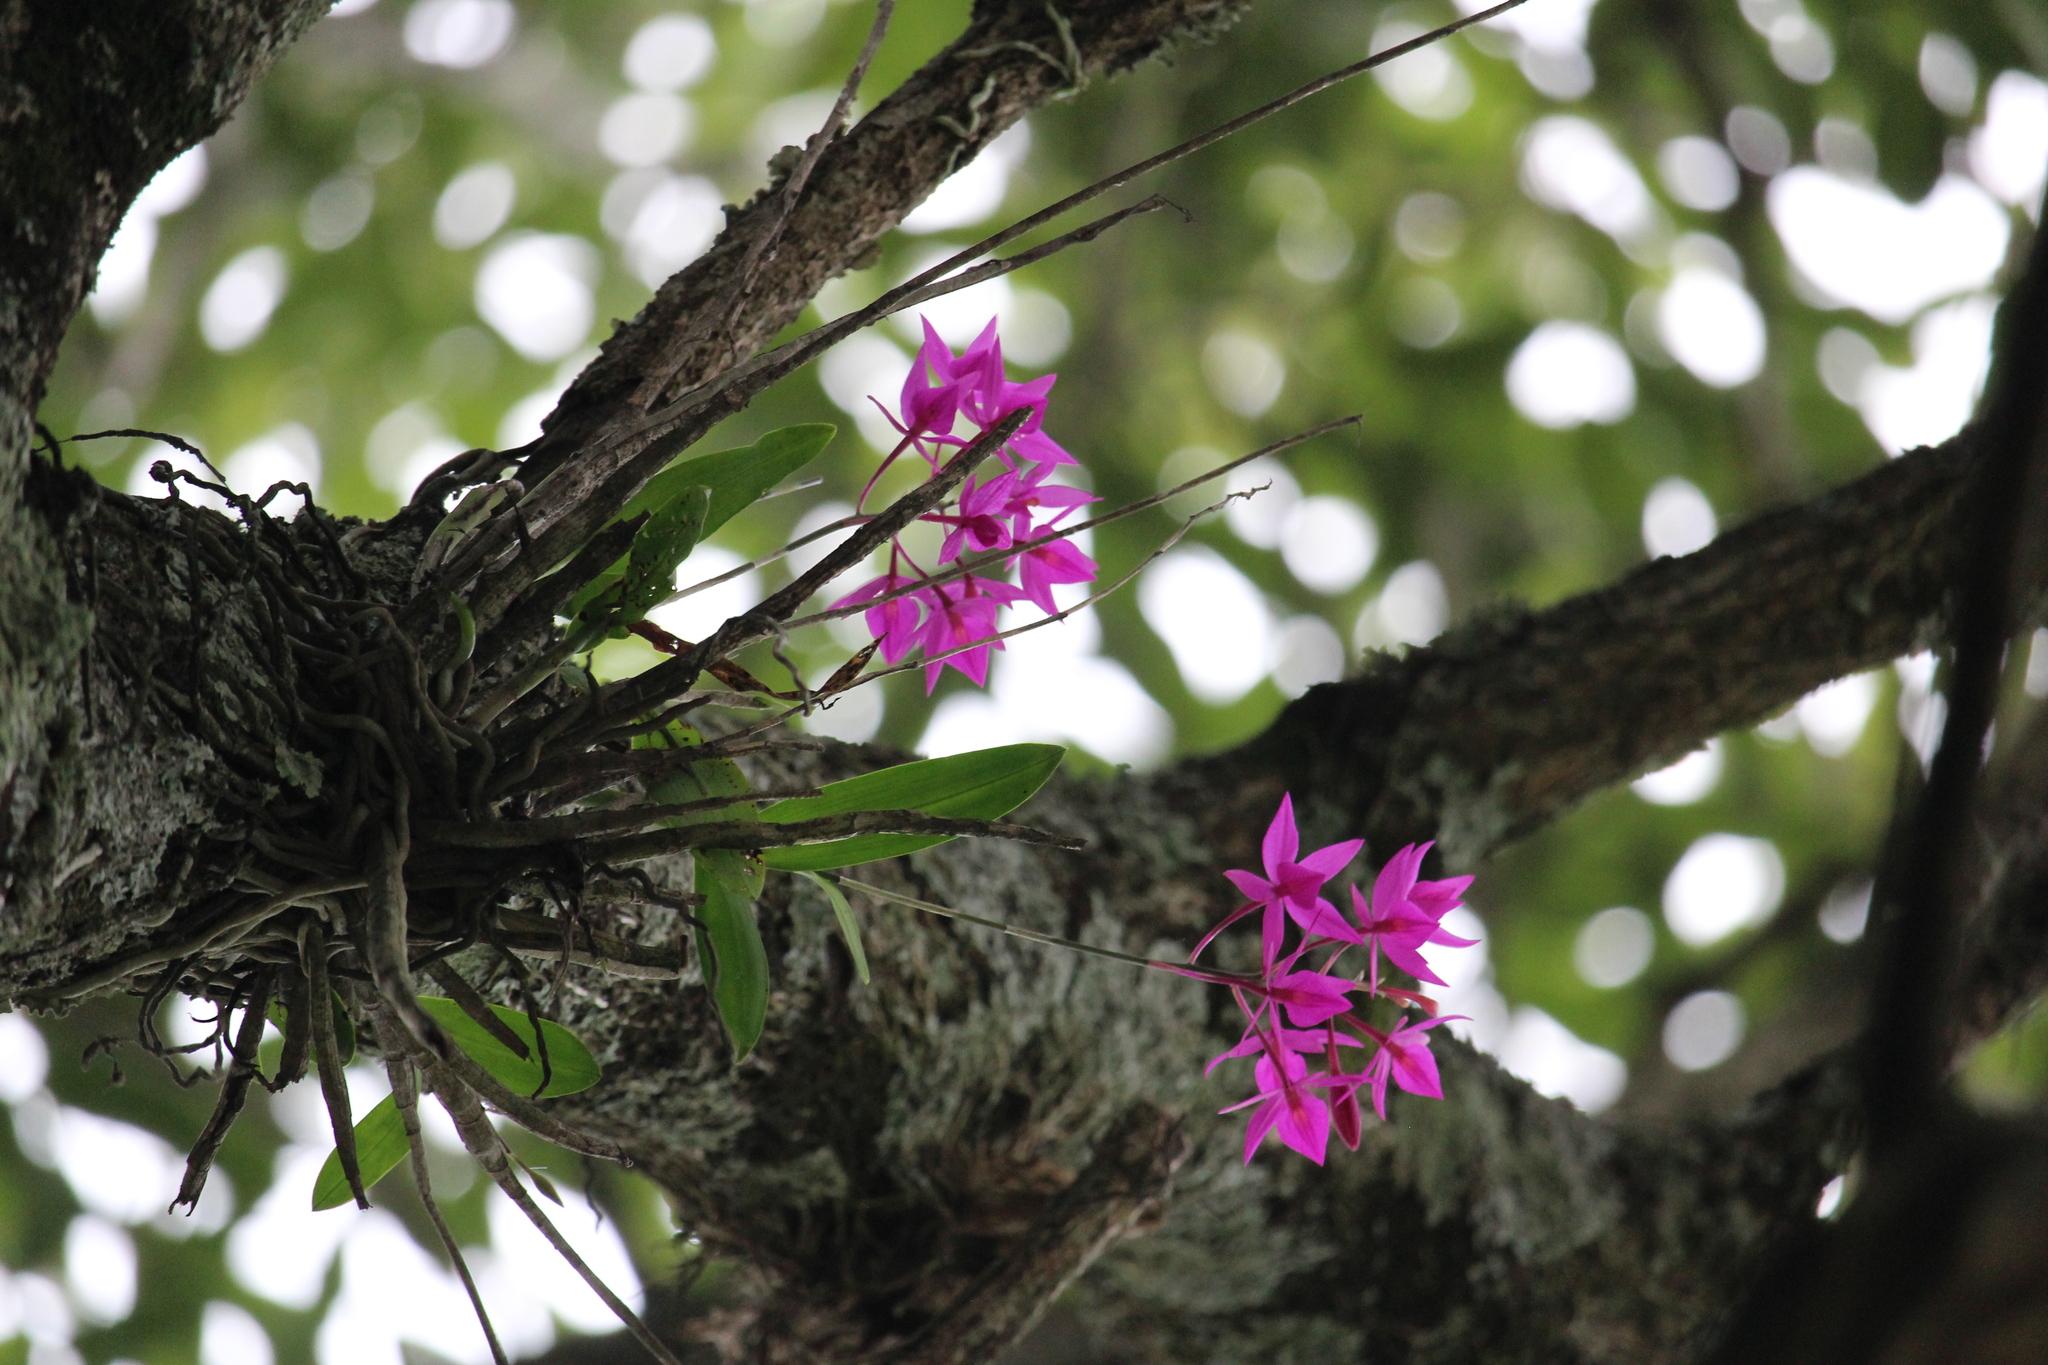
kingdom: Plantae
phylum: Tracheophyta
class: Liliopsida
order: Asparagales
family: Orchidaceae
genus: Barkeria
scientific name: Barkeria skinneri
